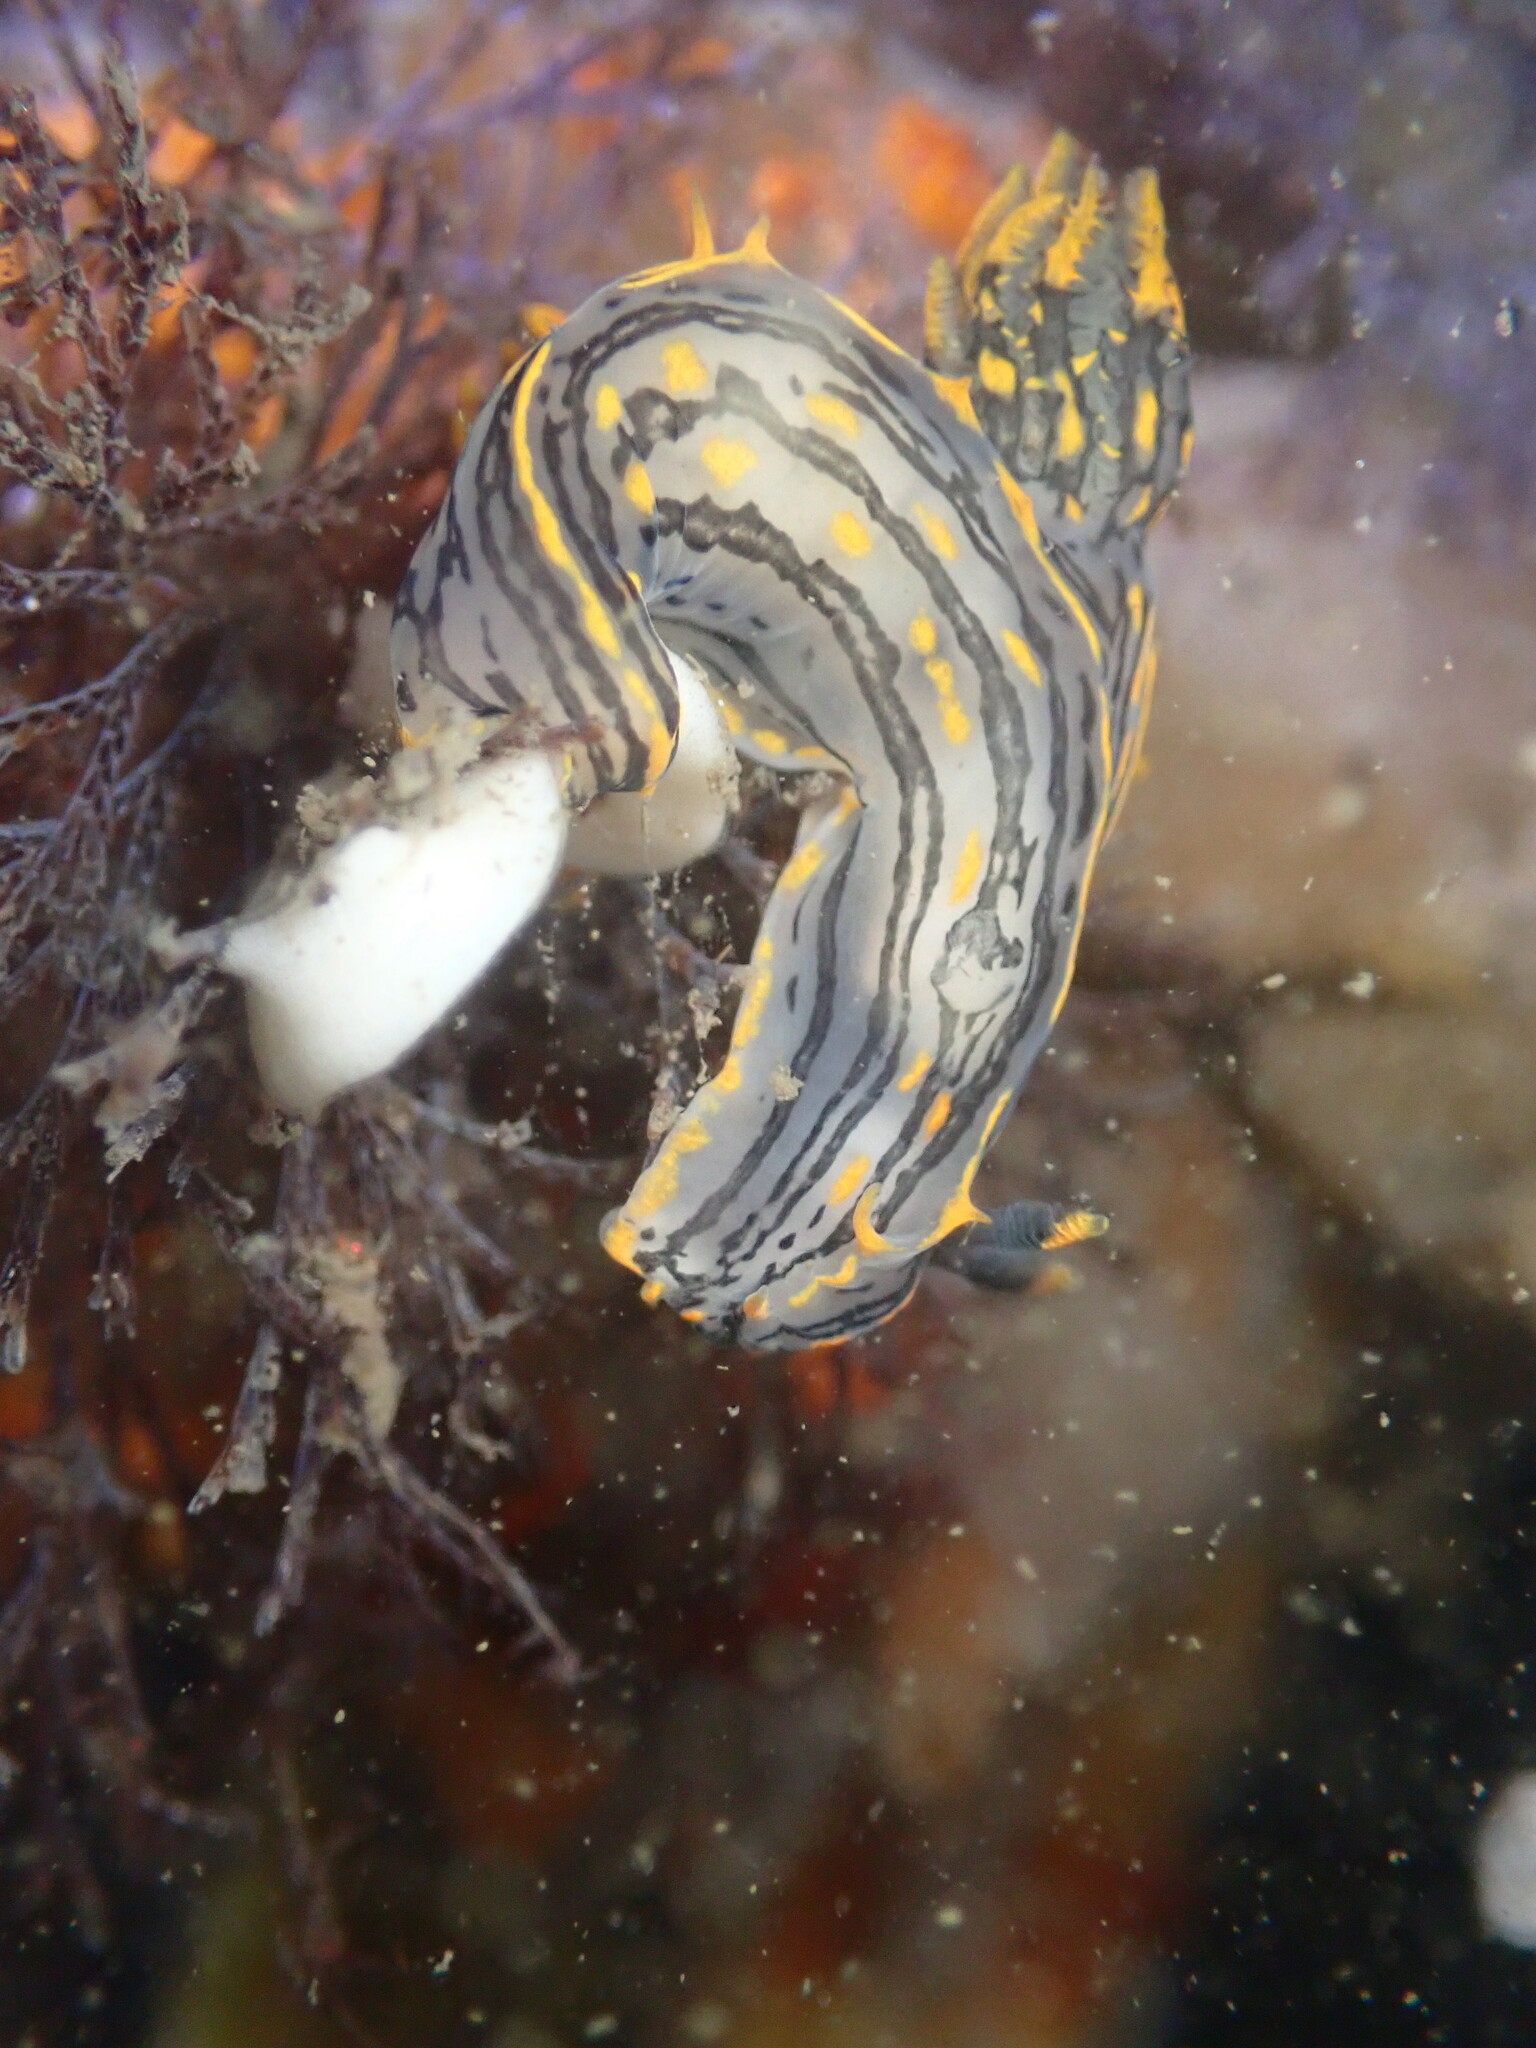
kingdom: Animalia
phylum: Mollusca
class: Gastropoda
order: Nudibranchia
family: Polyceridae
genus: Polycera
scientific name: Polycera atra
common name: Orange-spike polycera
